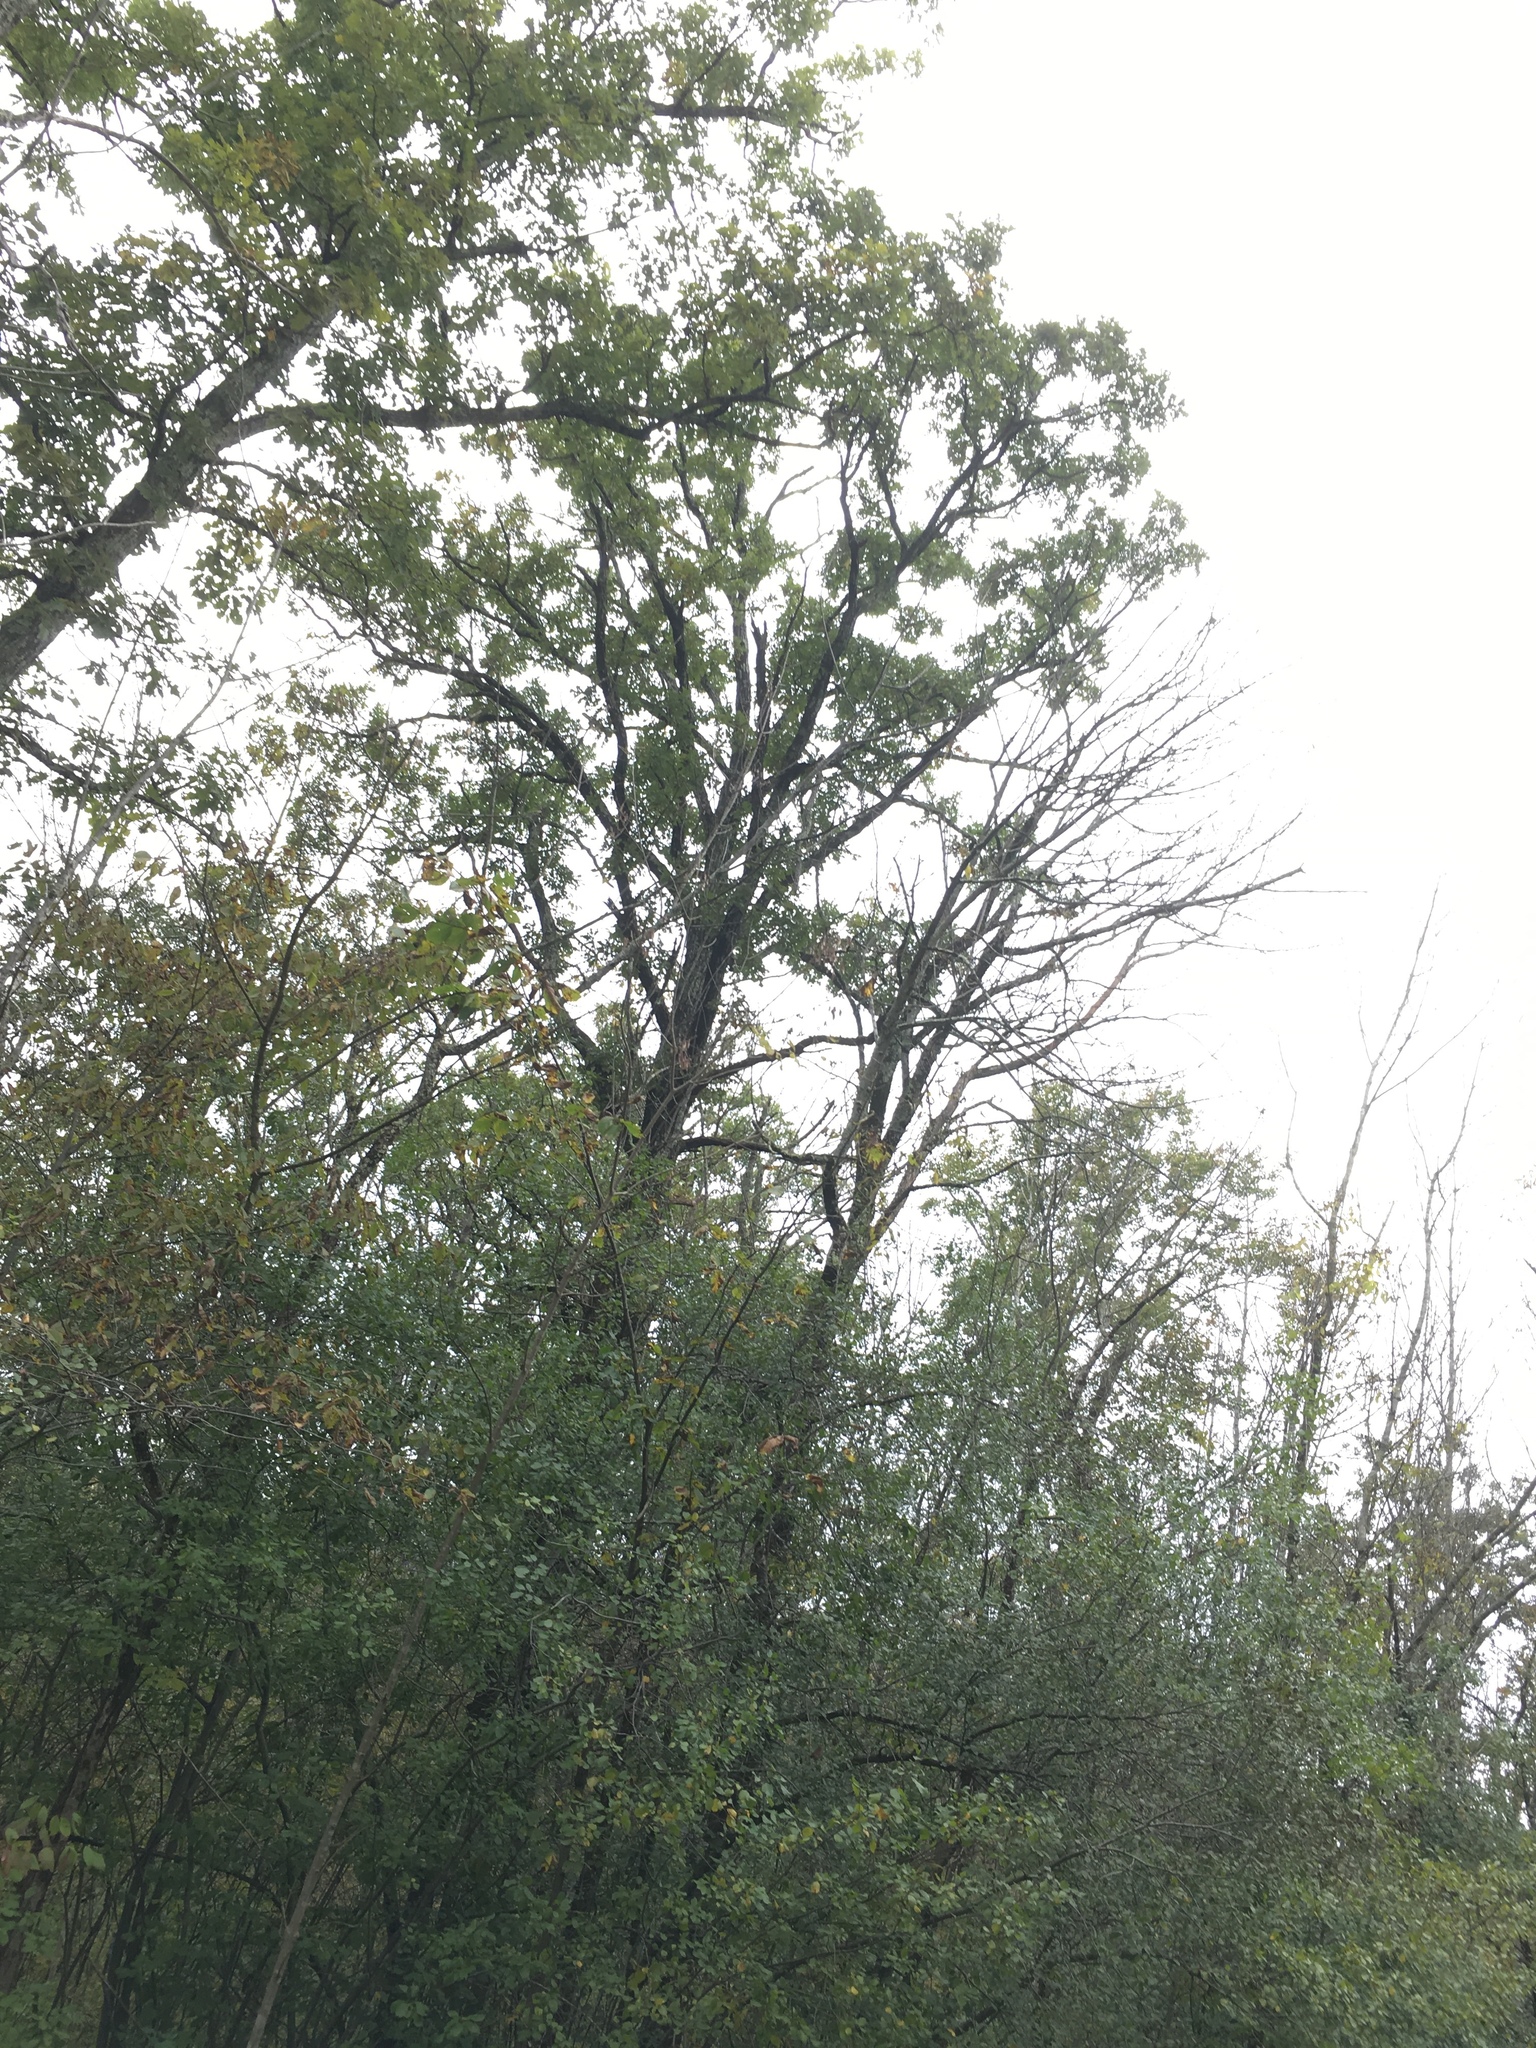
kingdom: Plantae
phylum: Tracheophyta
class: Magnoliopsida
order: Fagales
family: Fagaceae
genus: Quercus
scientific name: Quercus macrocarpa
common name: Bur oak
